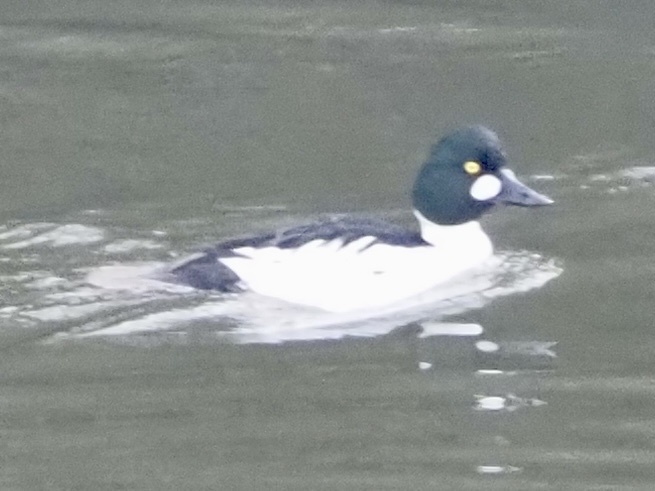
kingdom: Animalia
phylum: Chordata
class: Aves
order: Anseriformes
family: Anatidae
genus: Bucephala
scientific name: Bucephala clangula
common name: Common goldeneye
